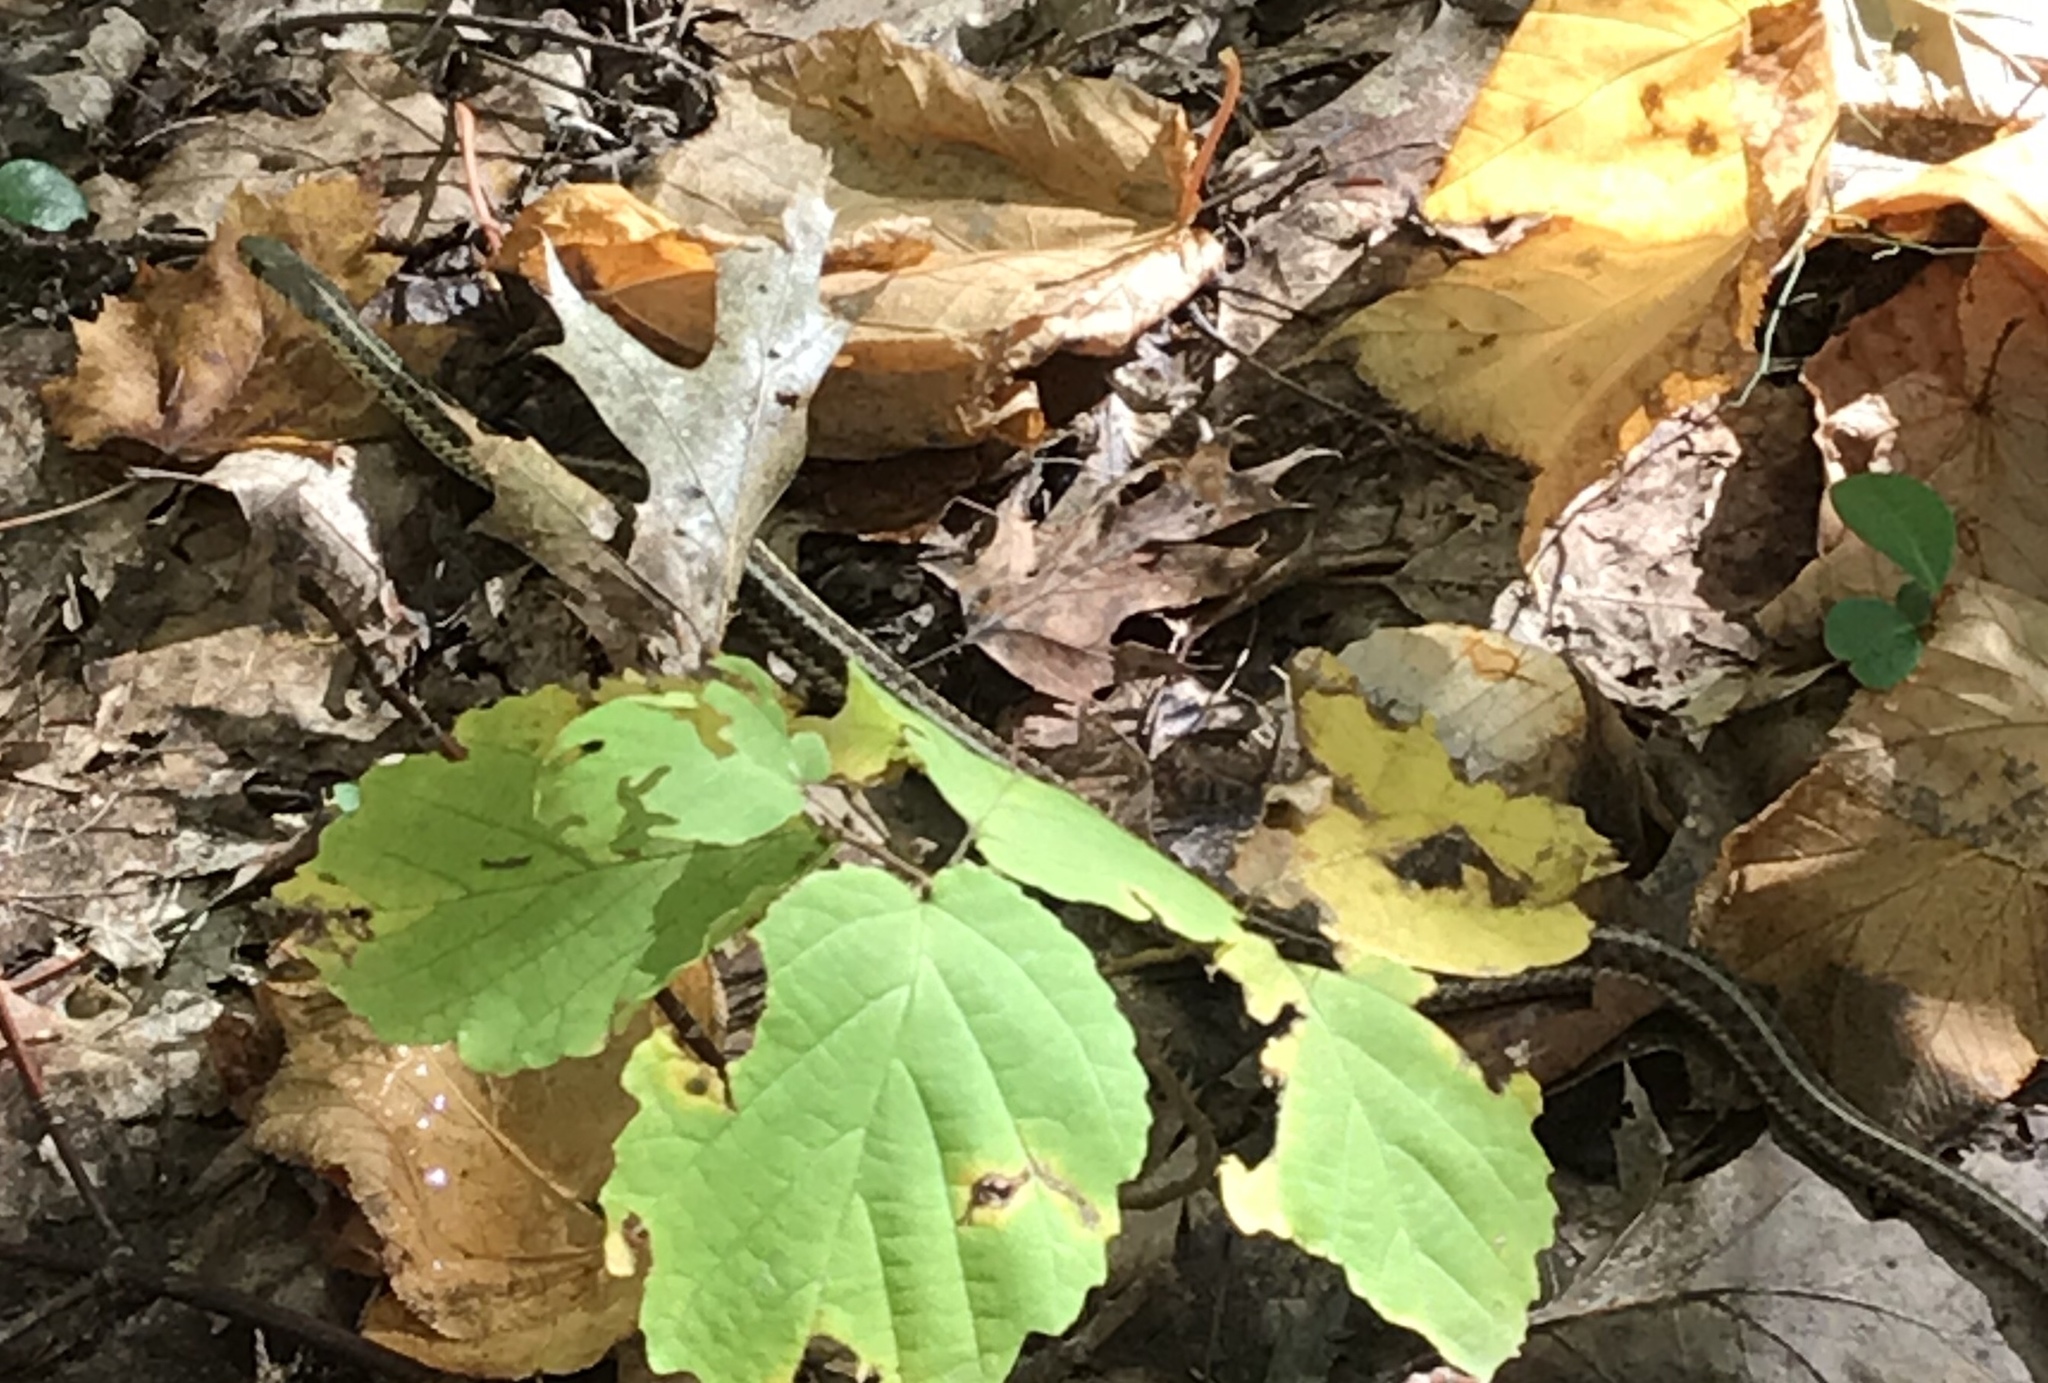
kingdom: Animalia
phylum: Chordata
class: Squamata
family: Colubridae
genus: Thamnophis
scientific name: Thamnophis sirtalis
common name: Common garter snake
